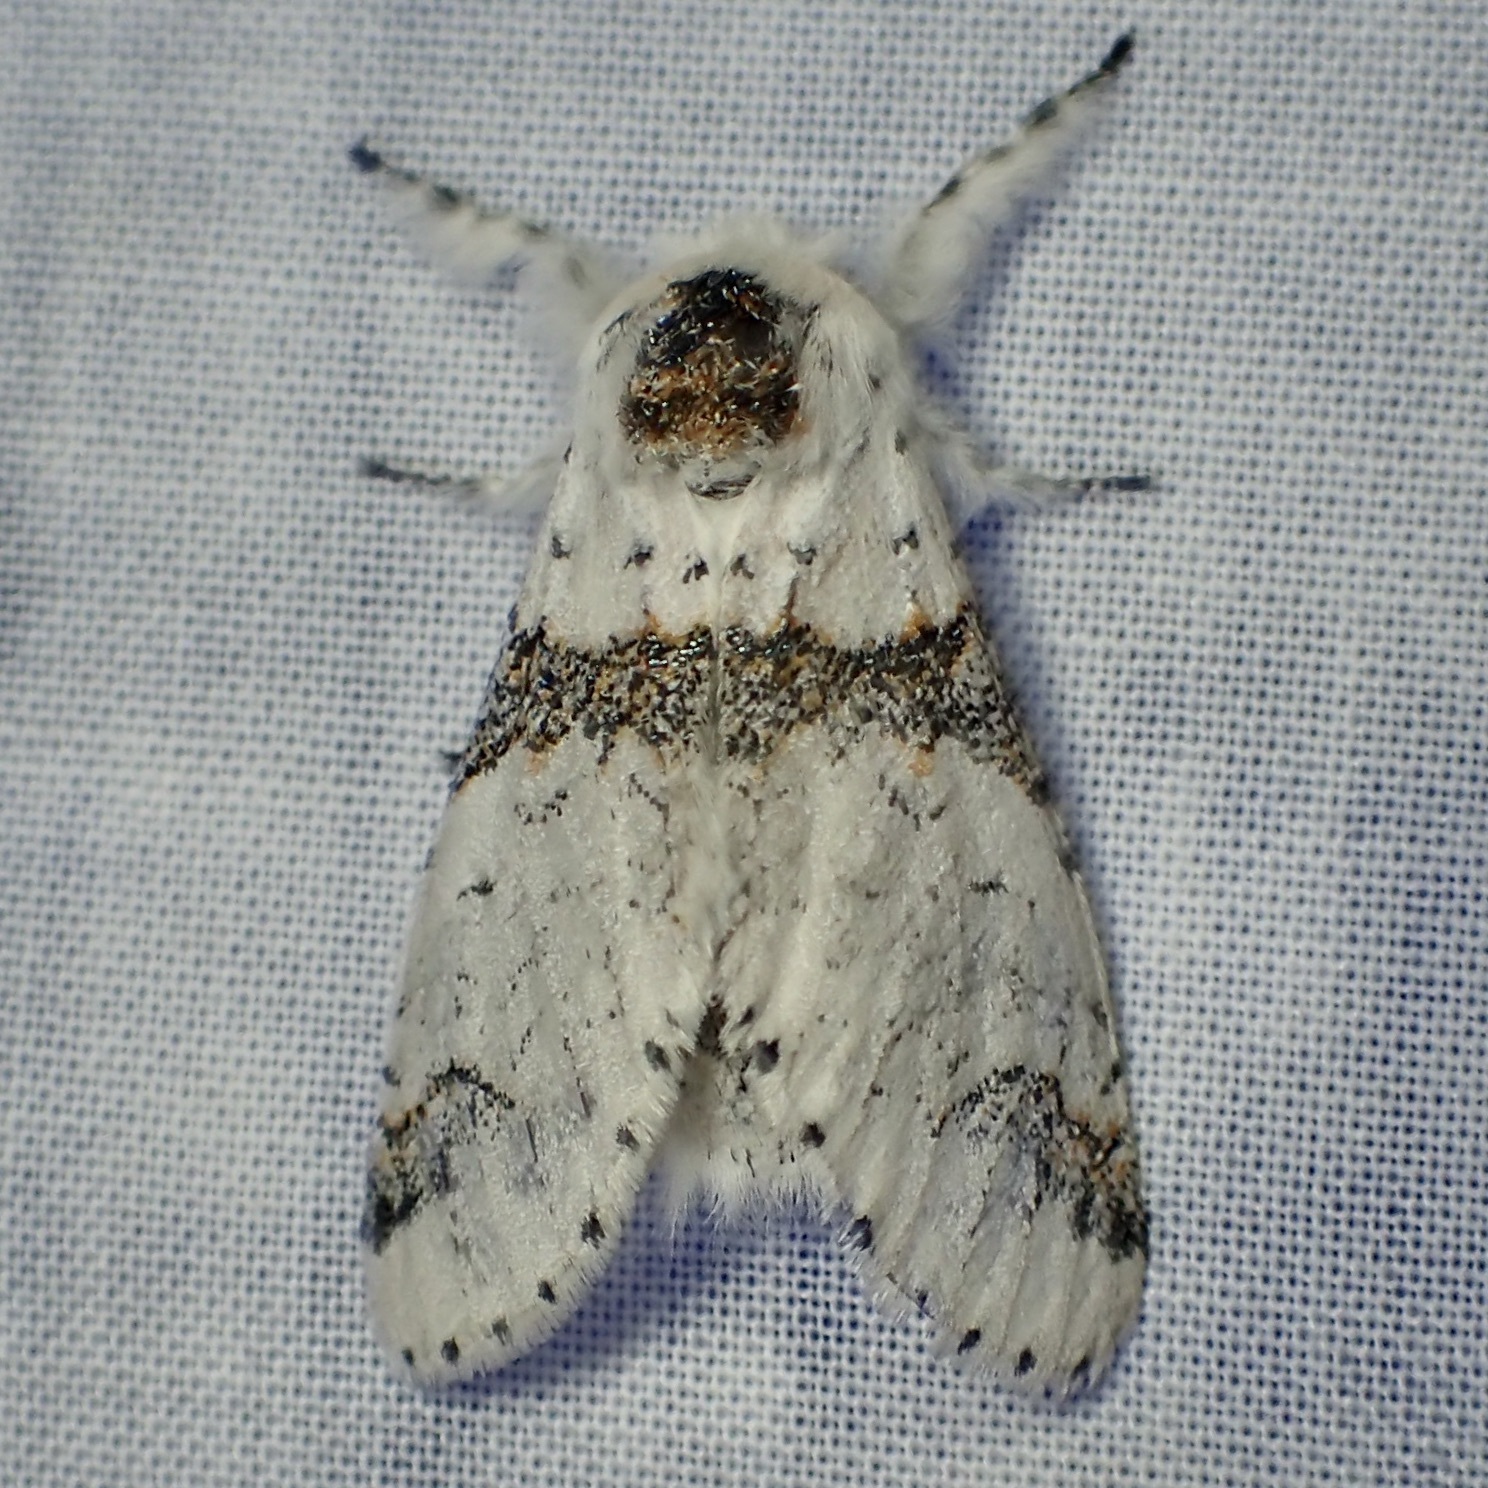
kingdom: Animalia
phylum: Arthropoda
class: Insecta
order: Lepidoptera
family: Notodontidae
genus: Furcula
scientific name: Furcula scolopendrina
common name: Zigzag furcula moth
